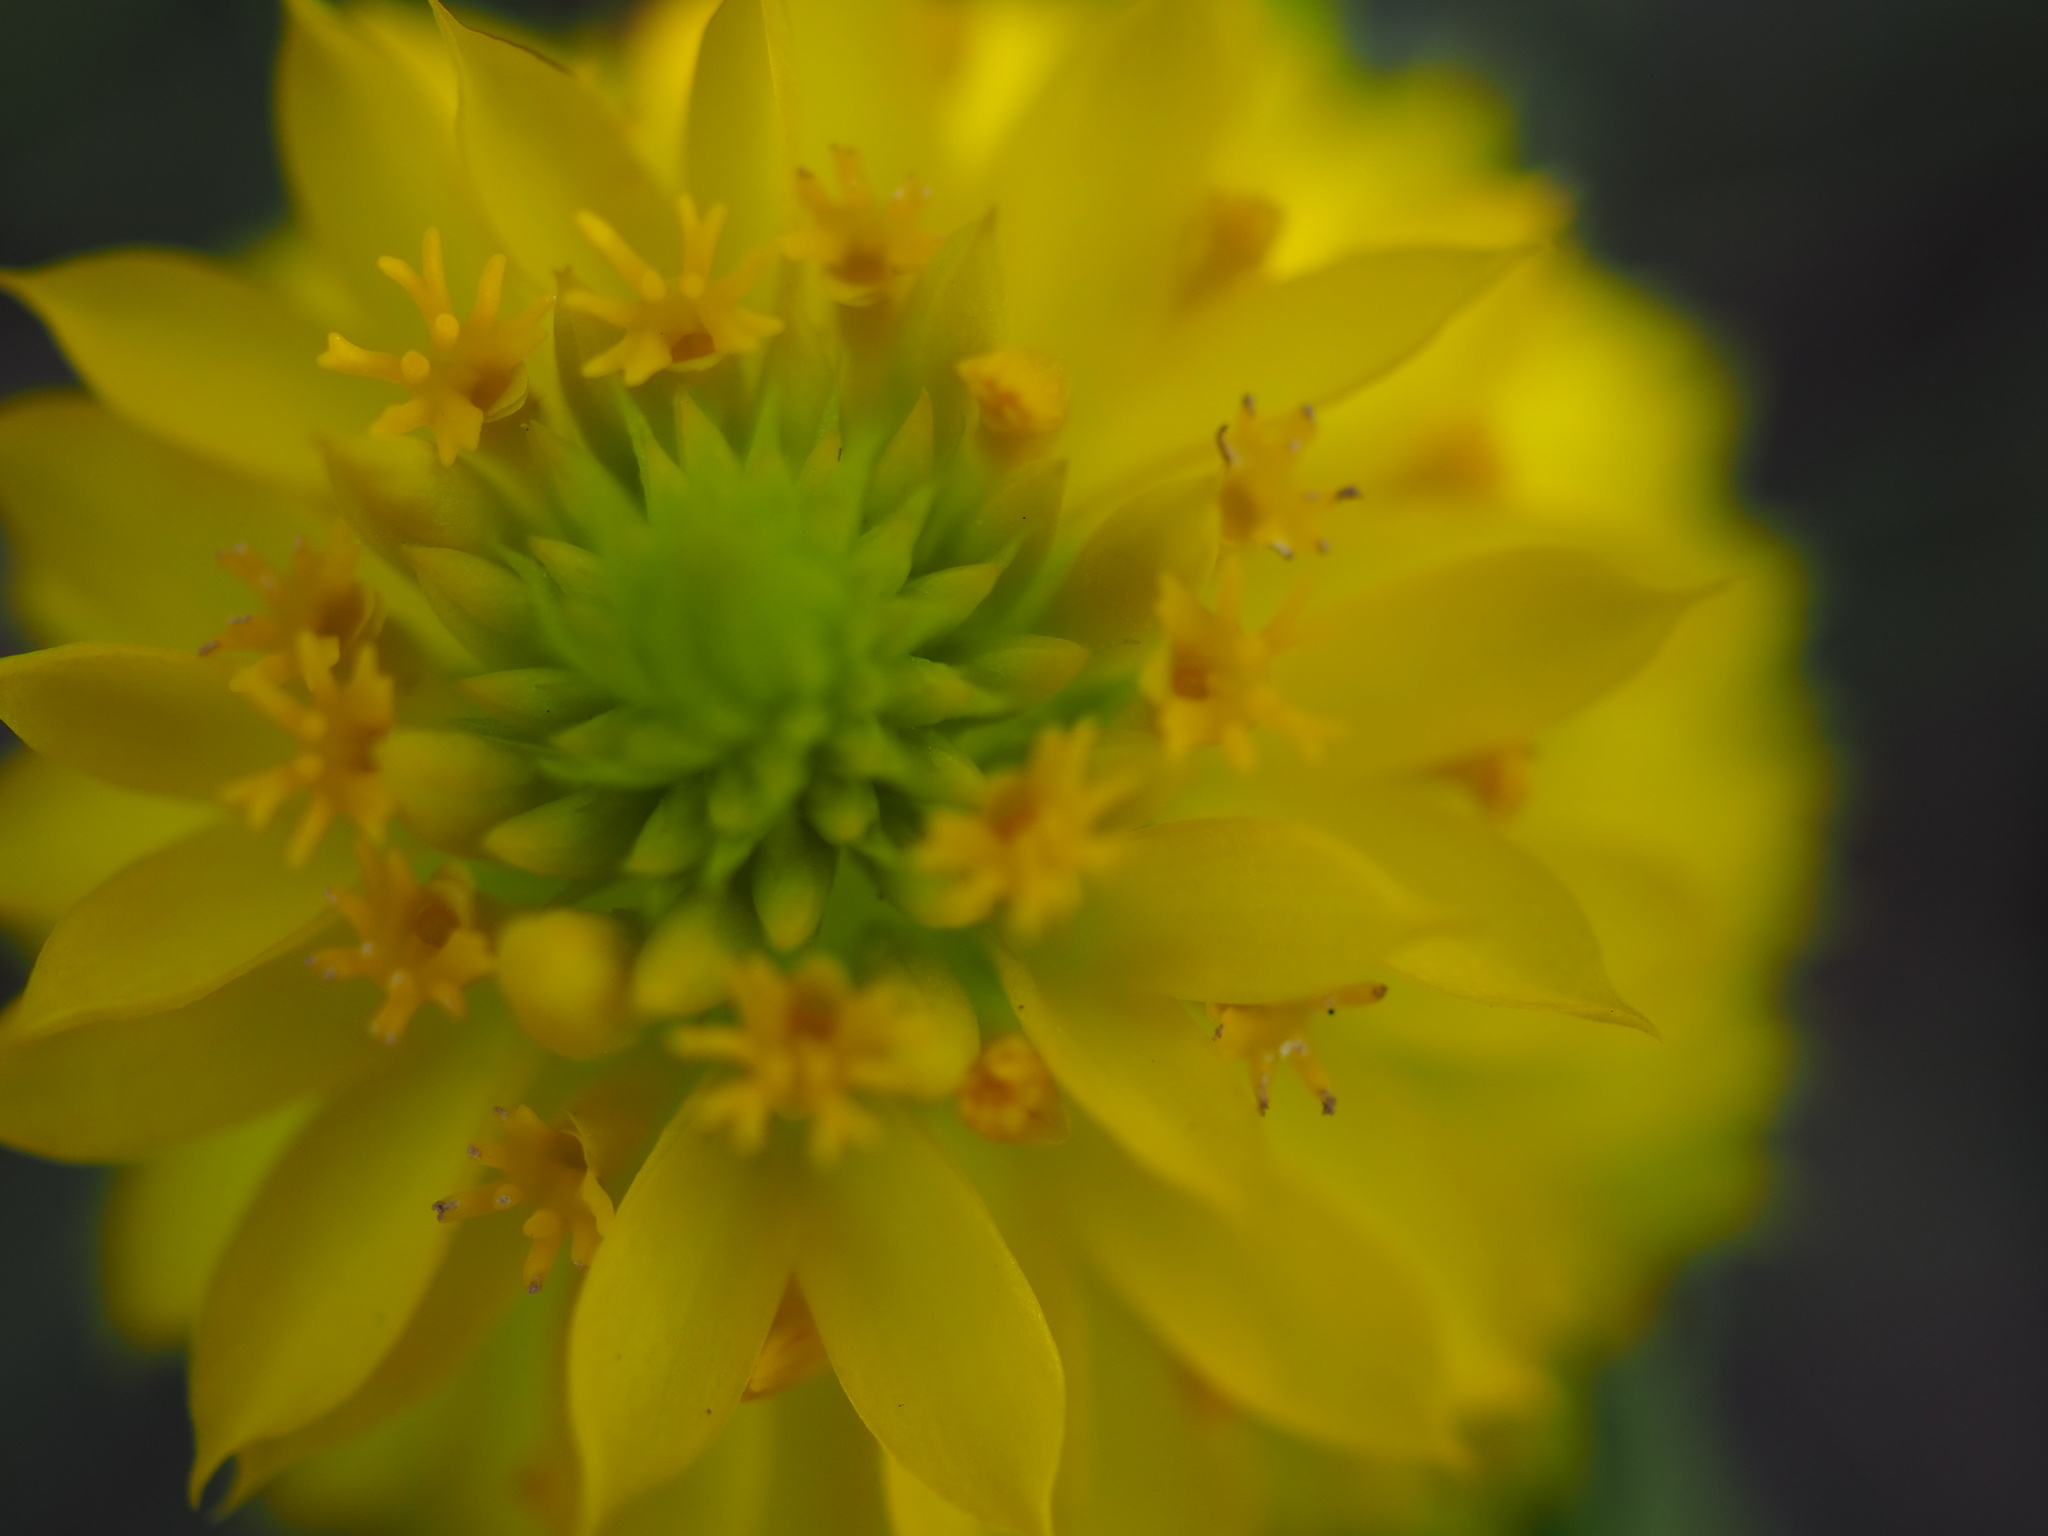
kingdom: Plantae
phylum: Tracheophyta
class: Magnoliopsida
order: Fabales
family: Polygalaceae
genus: Polygala
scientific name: Polygala rugelii
